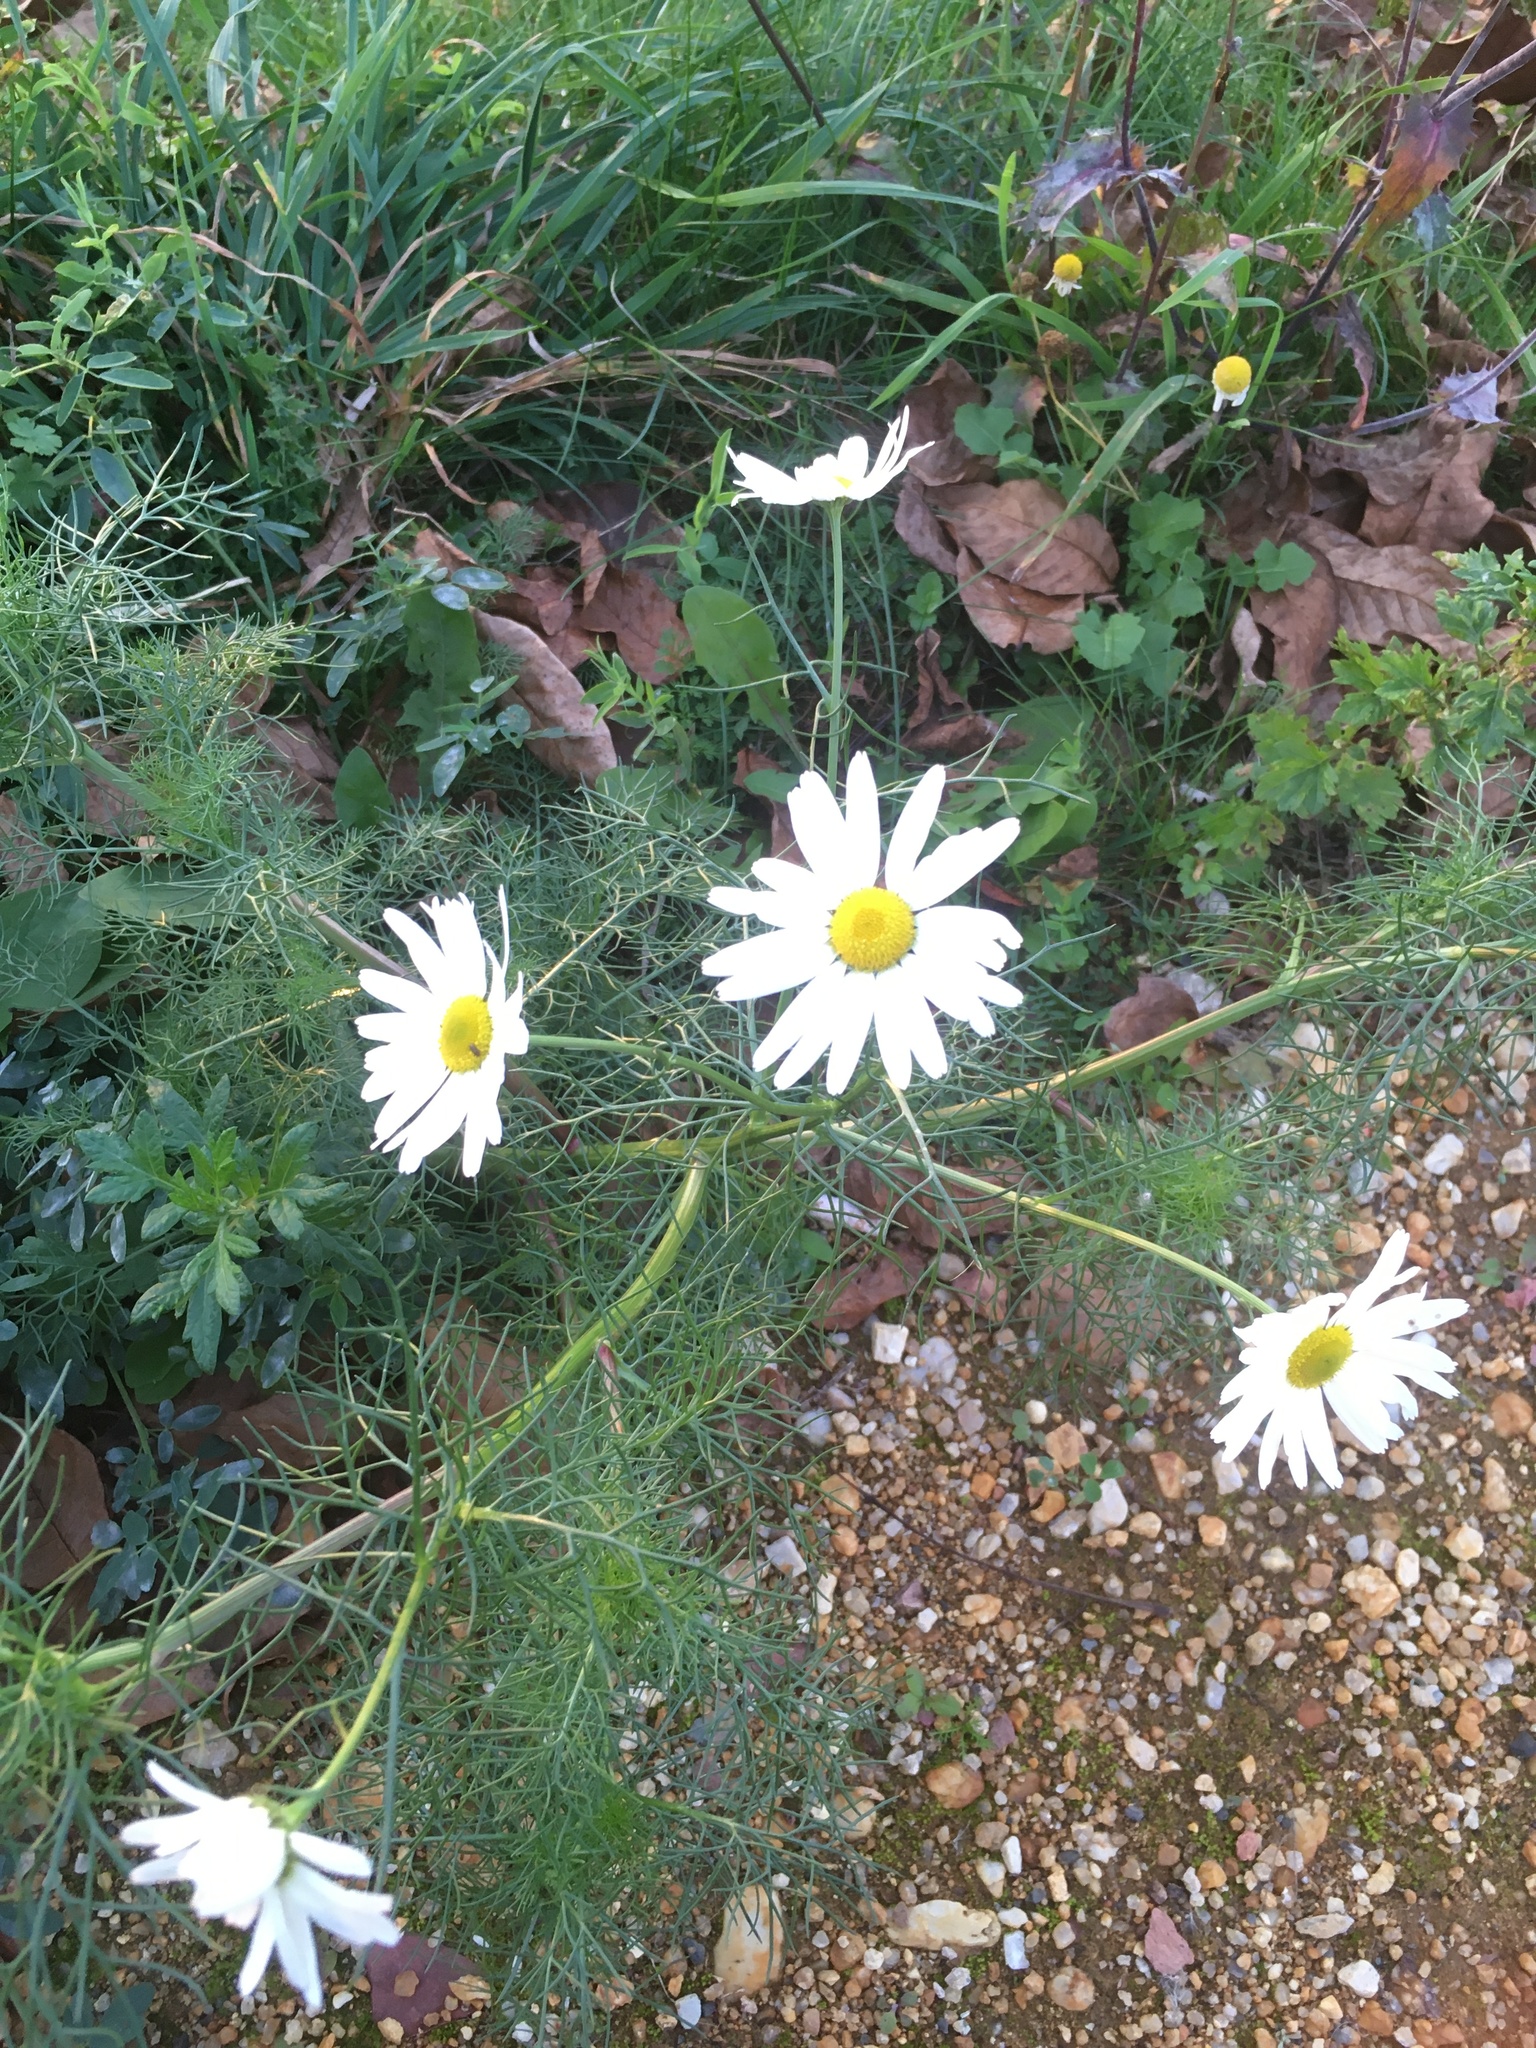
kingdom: Plantae
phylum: Tracheophyta
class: Magnoliopsida
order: Asterales
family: Asteraceae
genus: Tripleurospermum
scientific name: Tripleurospermum inodorum
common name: Scentless mayweed
